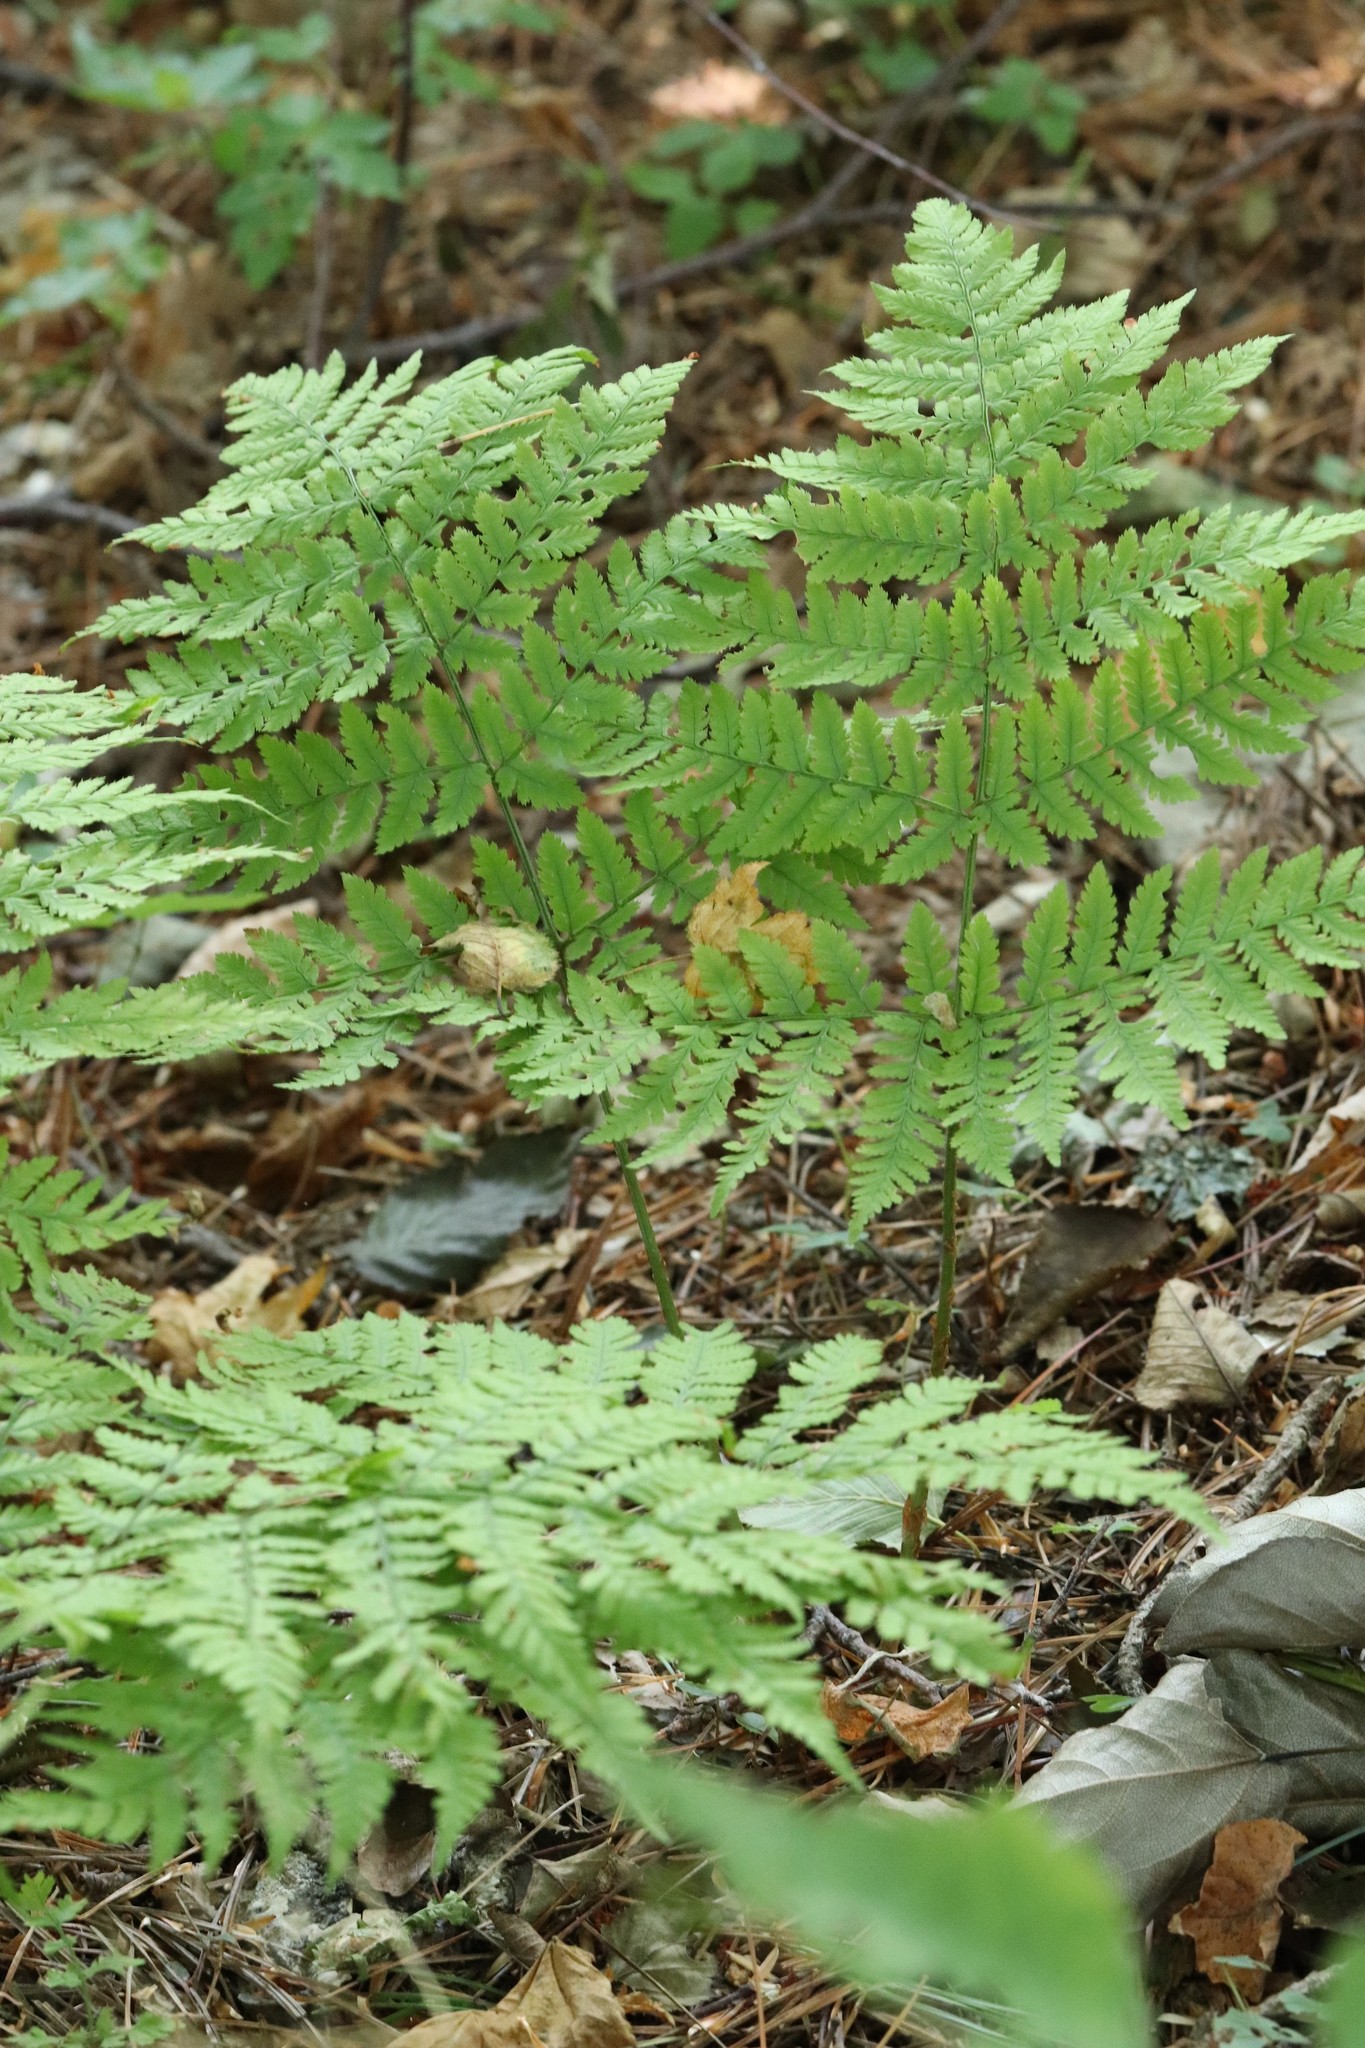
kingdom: Plantae
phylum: Tracheophyta
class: Polypodiopsida
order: Polypodiales
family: Dryopteridaceae
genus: Dryopteris
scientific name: Dryopteris expansa
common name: Northern buckler fern
